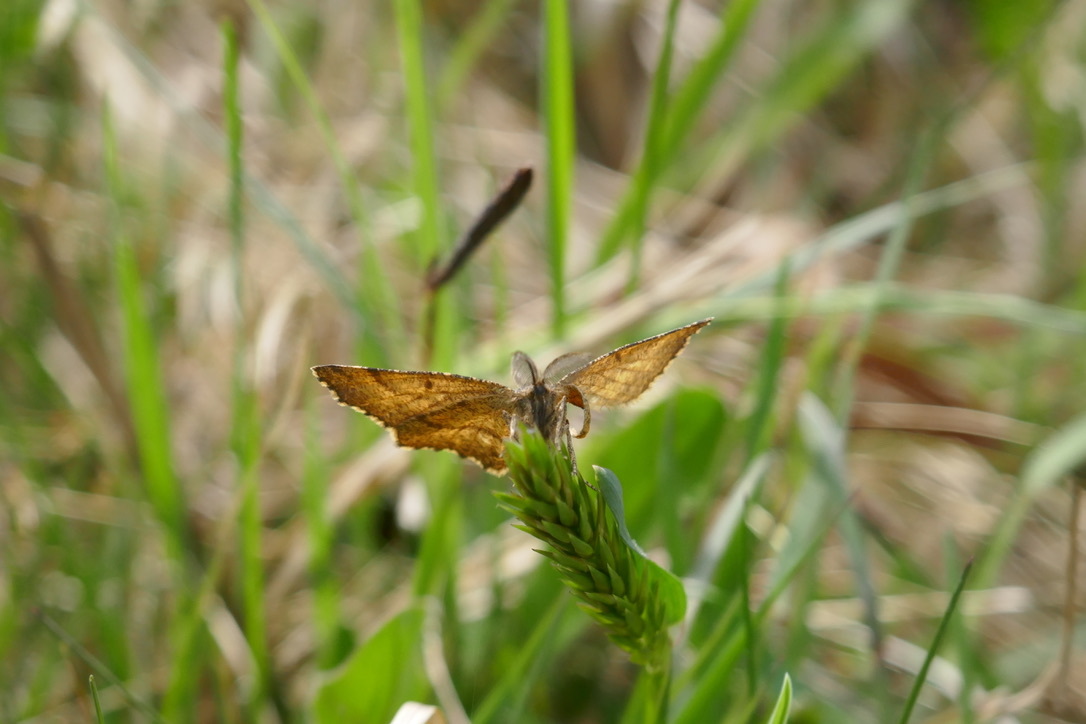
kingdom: Animalia
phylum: Arthropoda
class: Insecta
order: Lepidoptera
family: Geometridae
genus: Ematurga
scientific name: Ematurga atomaria
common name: Common heath
